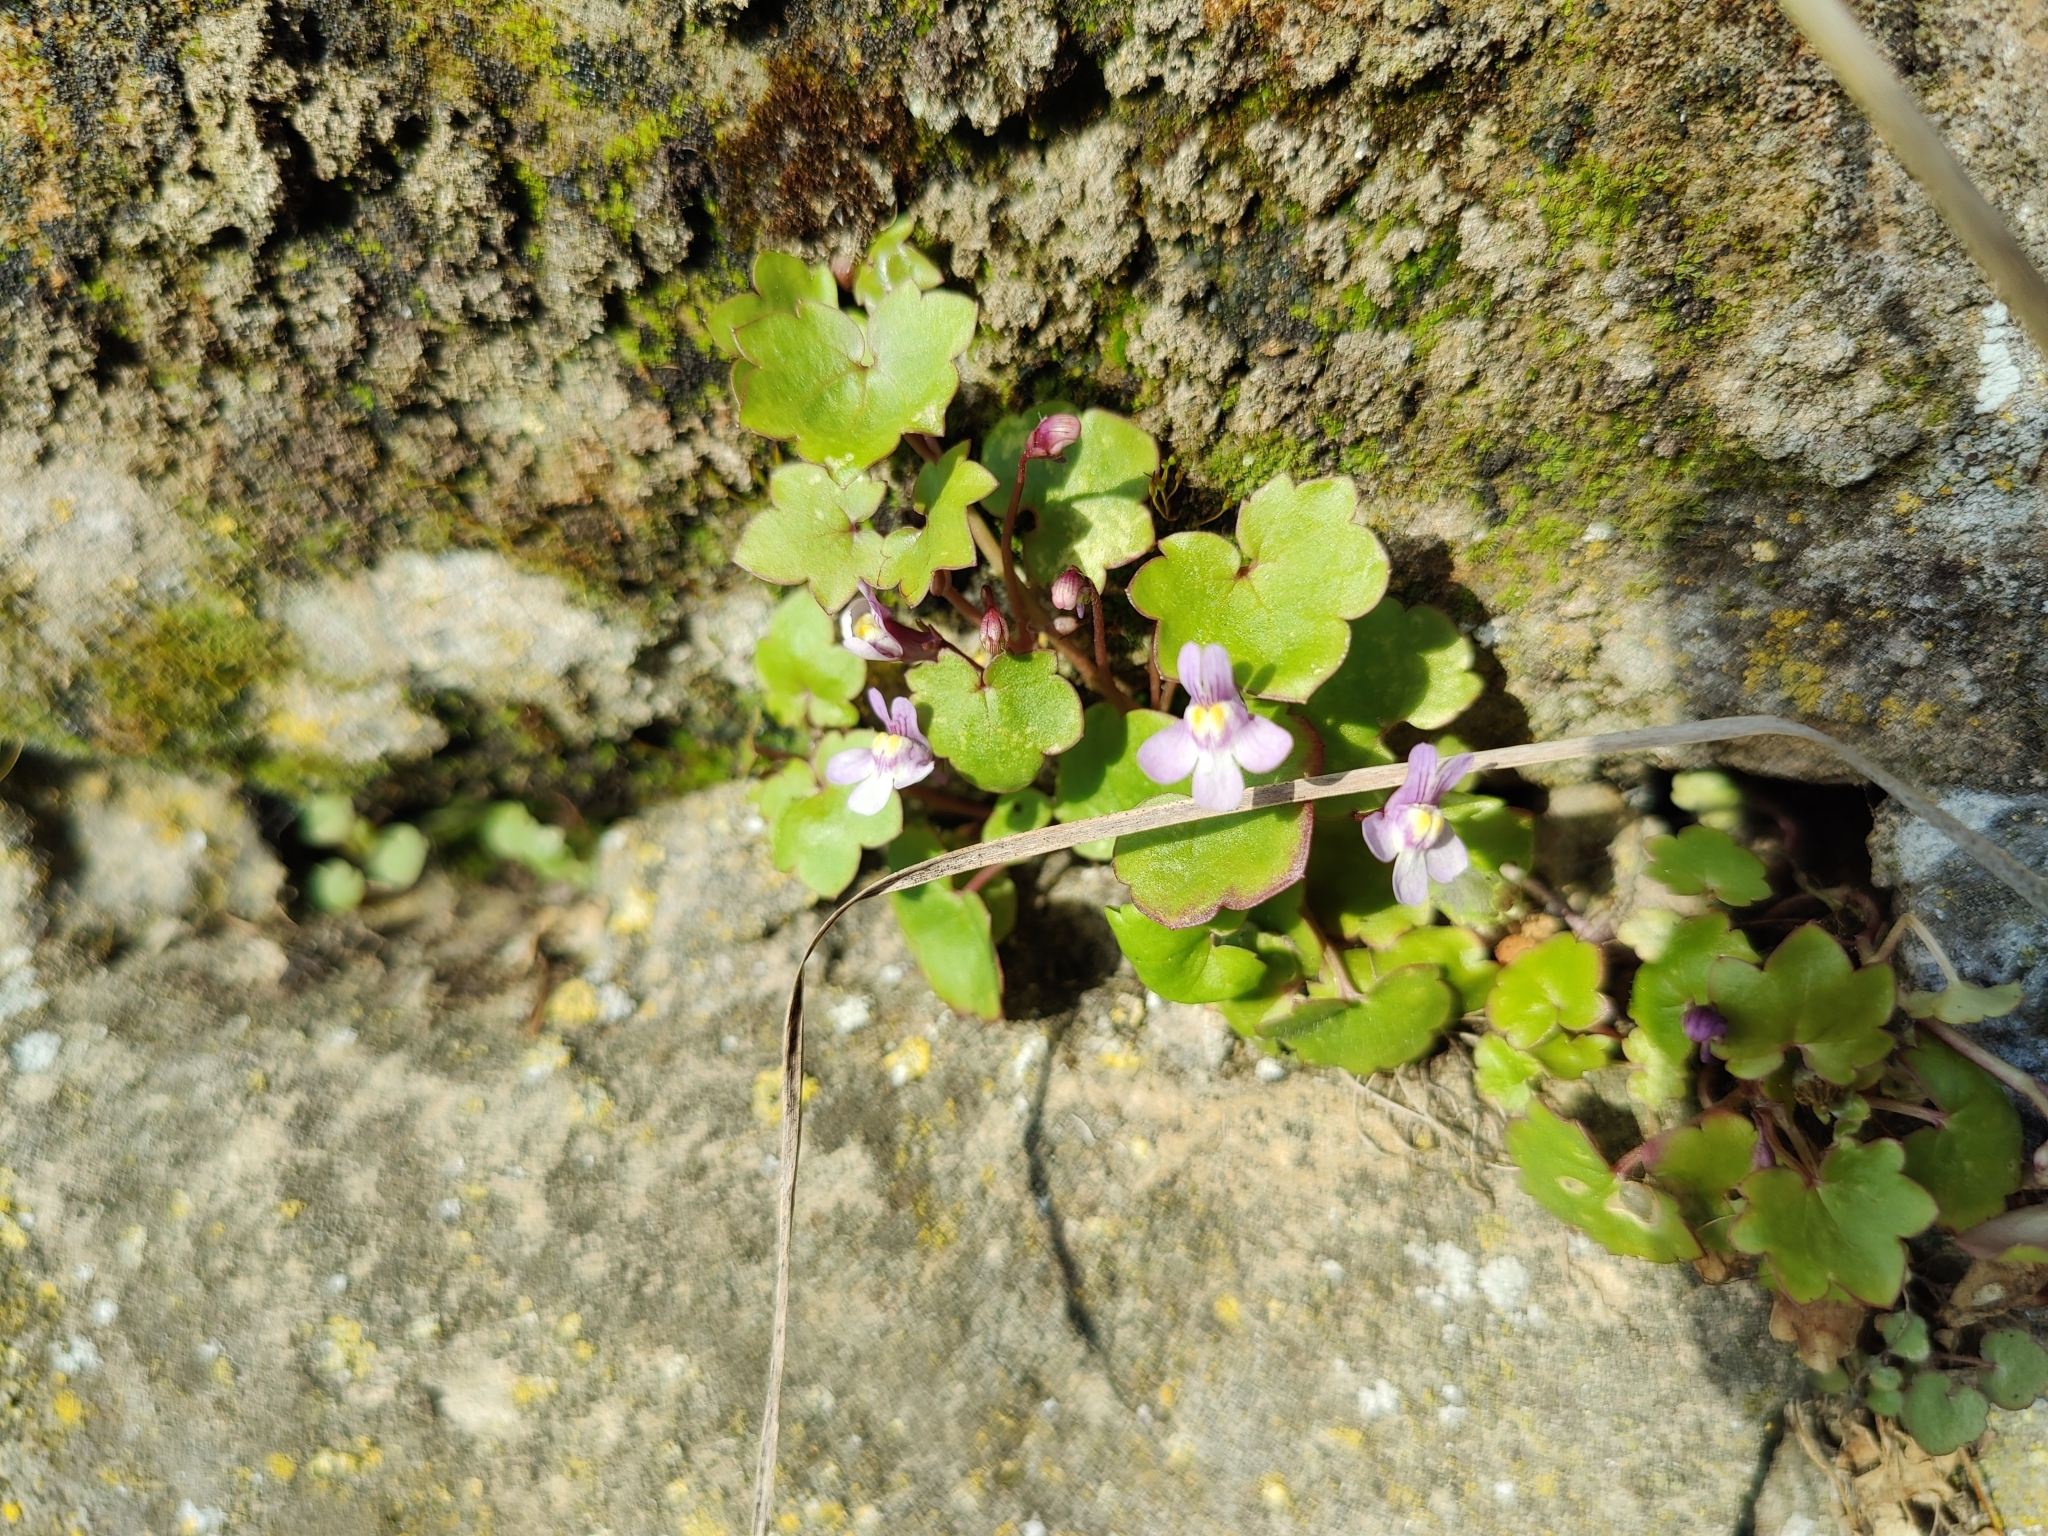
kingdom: Plantae
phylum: Tracheophyta
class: Magnoliopsida
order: Lamiales
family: Plantaginaceae
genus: Cymbalaria
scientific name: Cymbalaria muralis
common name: Ivy-leaved toadflax
